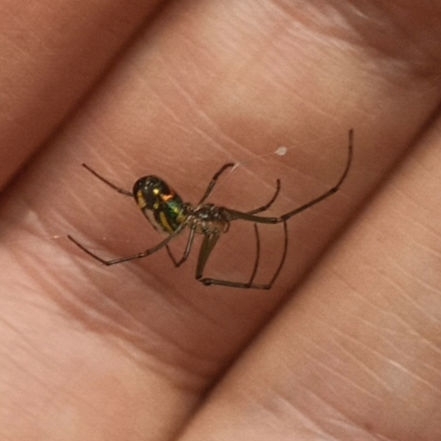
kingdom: Animalia
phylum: Arthropoda
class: Arachnida
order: Araneae
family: Tetragnathidae
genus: Leucauge
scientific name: Leucauge venusta
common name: Longjawed orb weavers
